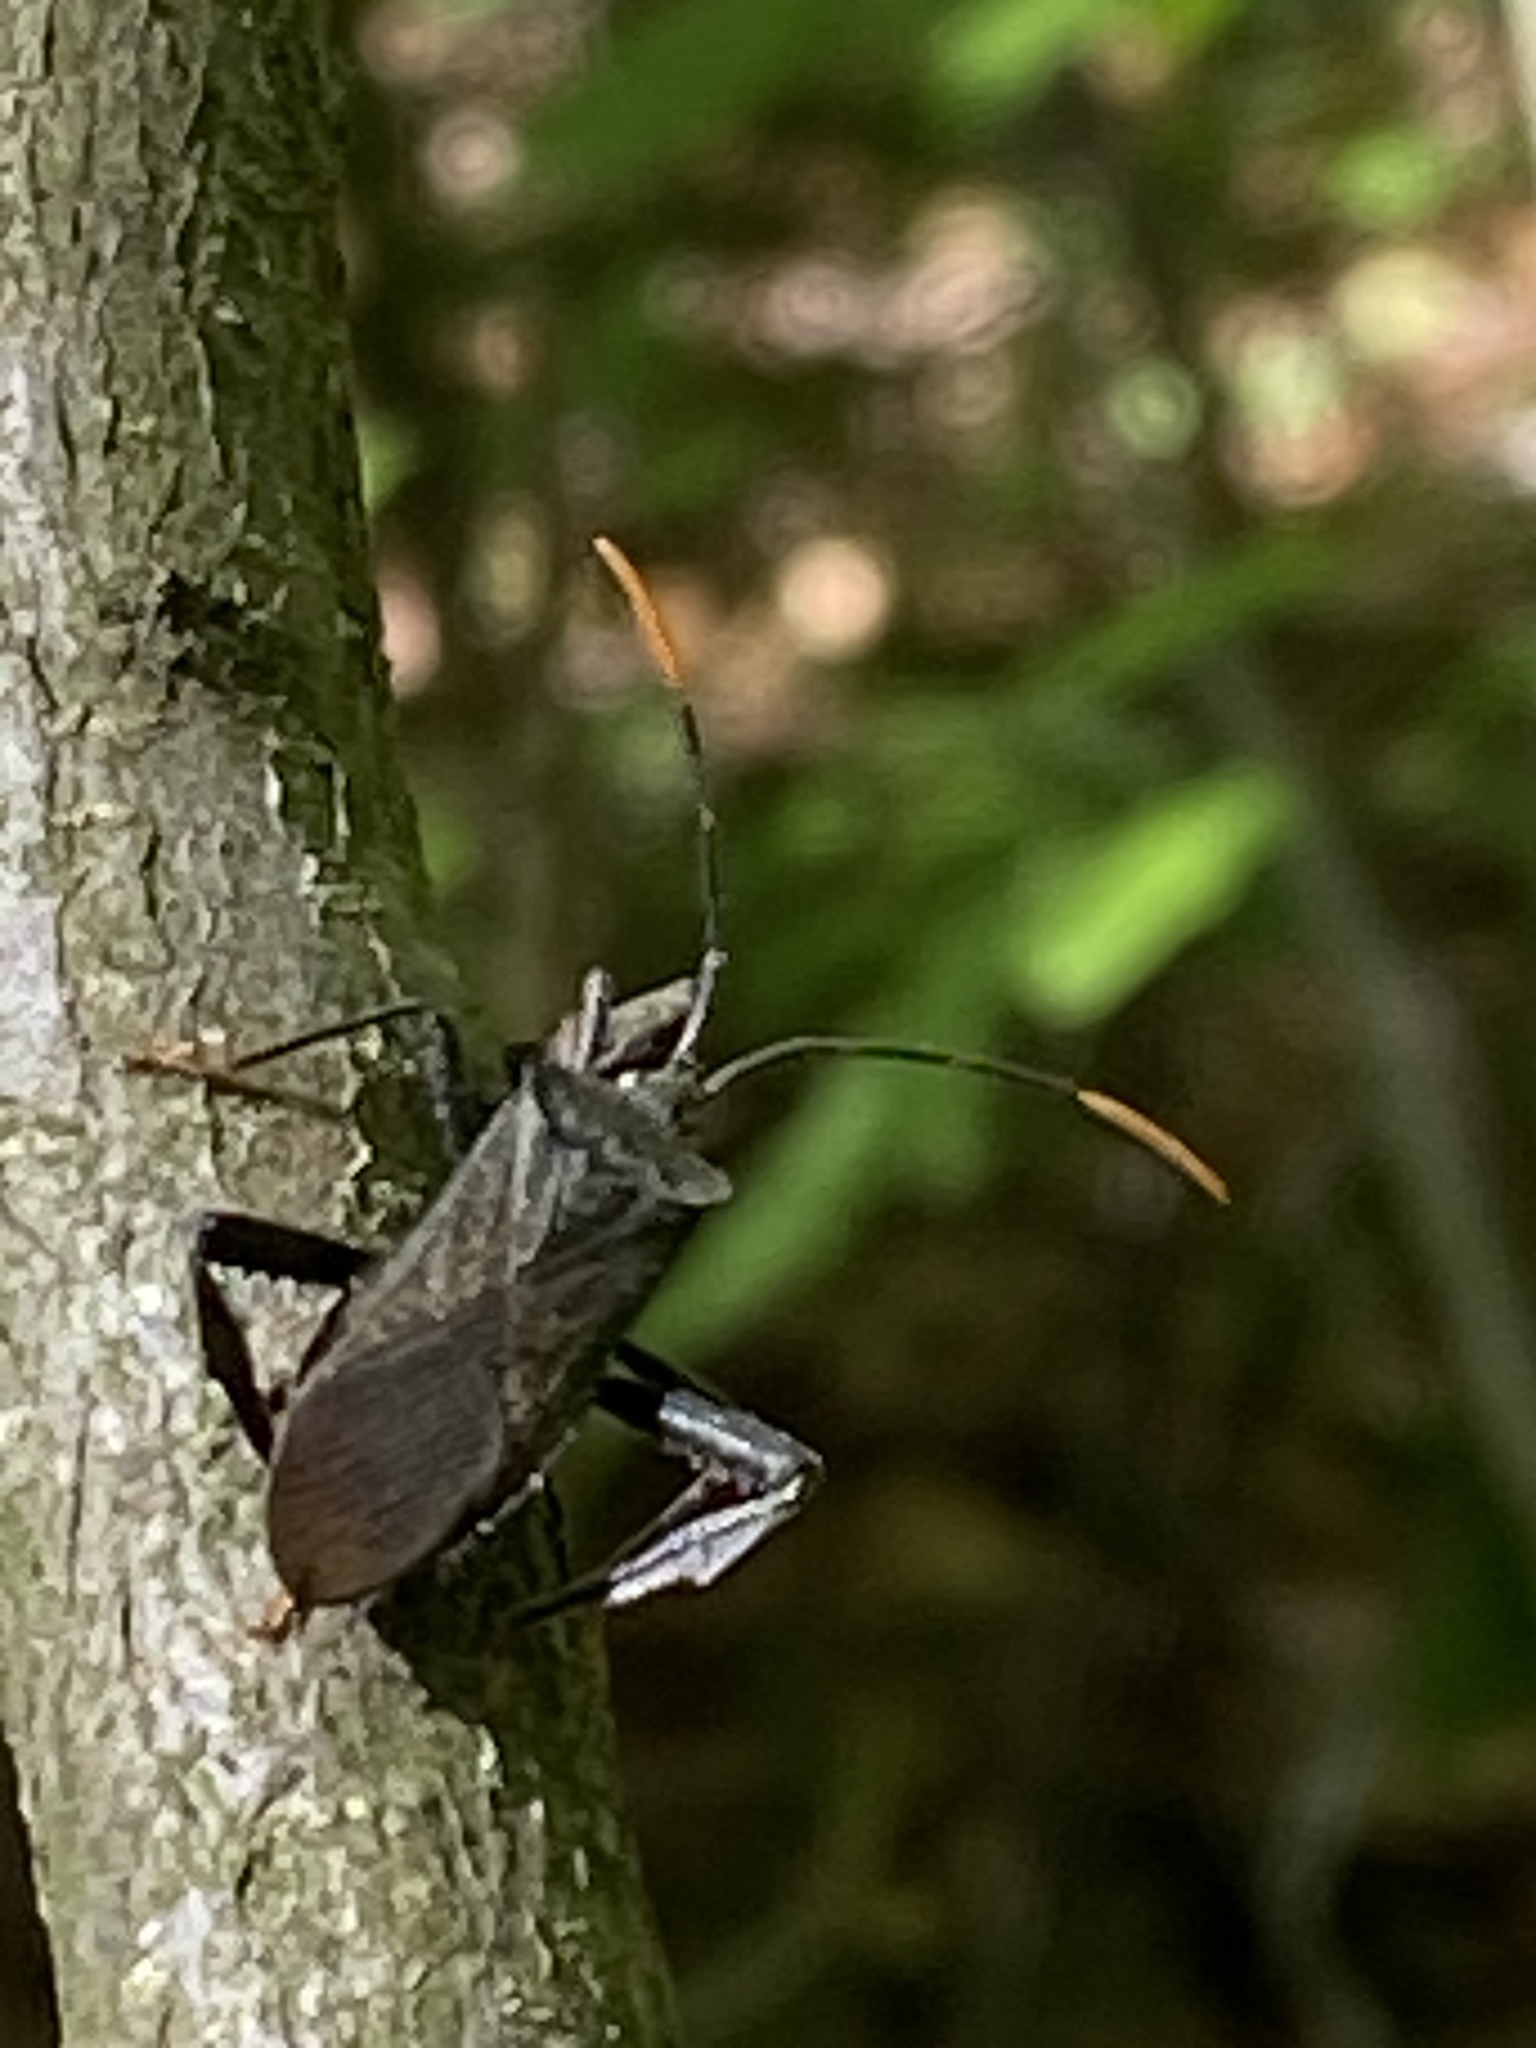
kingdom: Animalia
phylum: Arthropoda
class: Insecta
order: Hemiptera
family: Coreidae
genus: Acanthocephala
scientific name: Acanthocephala terminalis
